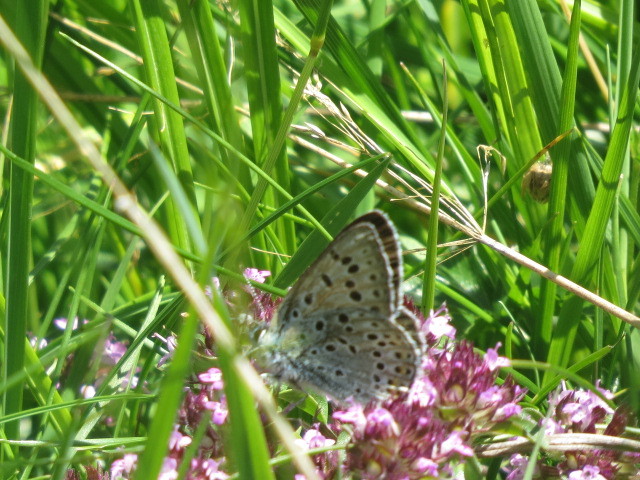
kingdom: Animalia
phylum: Arthropoda
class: Insecta
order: Lepidoptera
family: Lycaenidae
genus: Loweia
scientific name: Loweia tityrus
